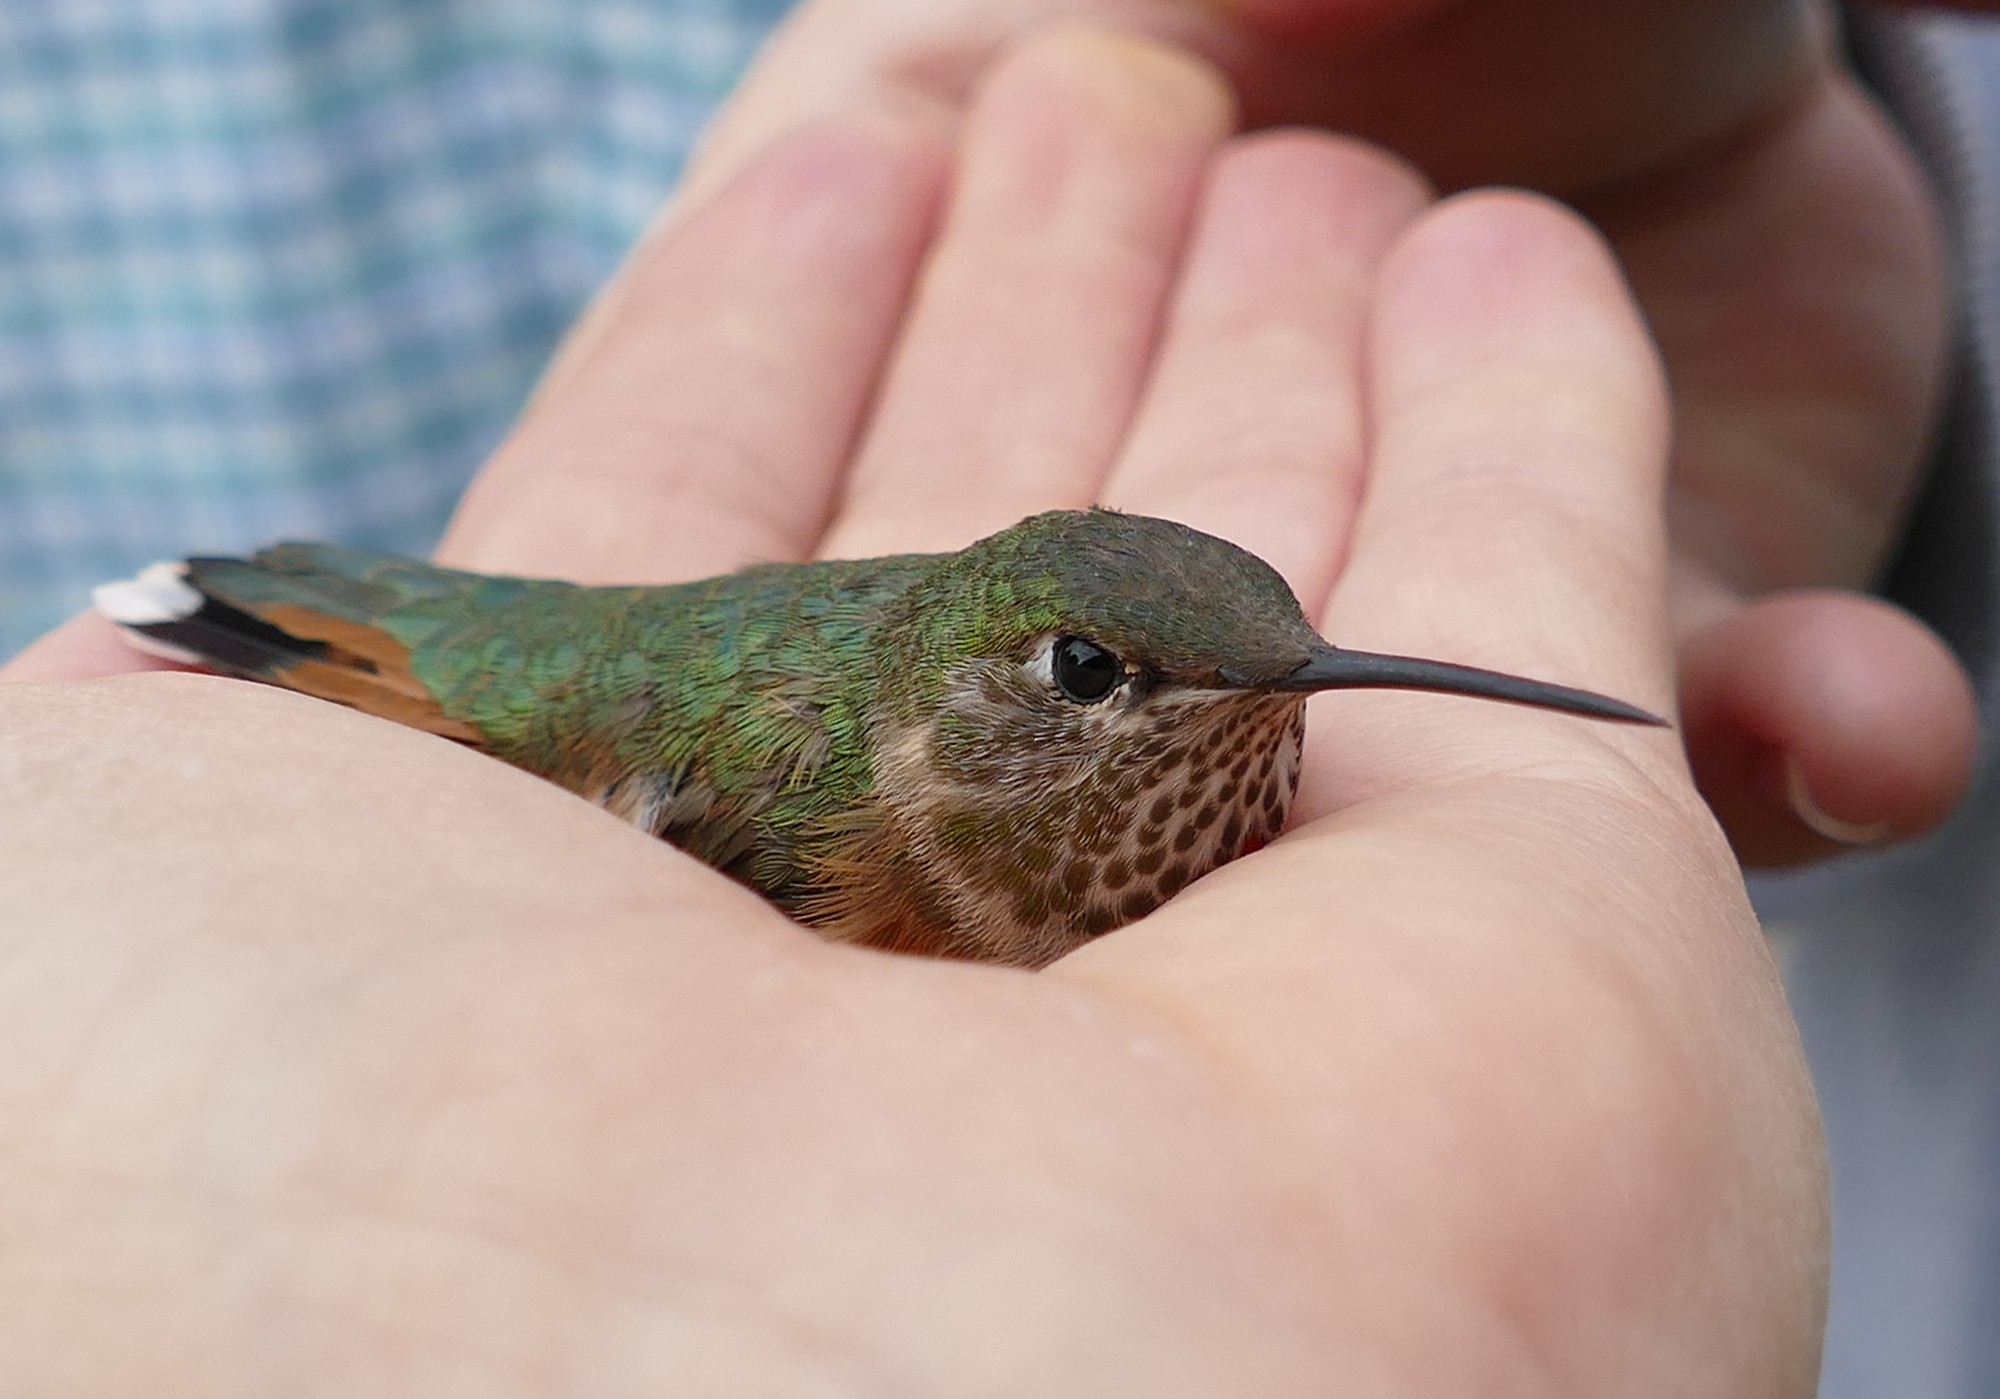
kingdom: Animalia
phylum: Chordata
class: Aves
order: Apodiformes
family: Trochilidae
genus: Selasphorus
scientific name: Selasphorus platycercus
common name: Broad-tailed hummingbird
